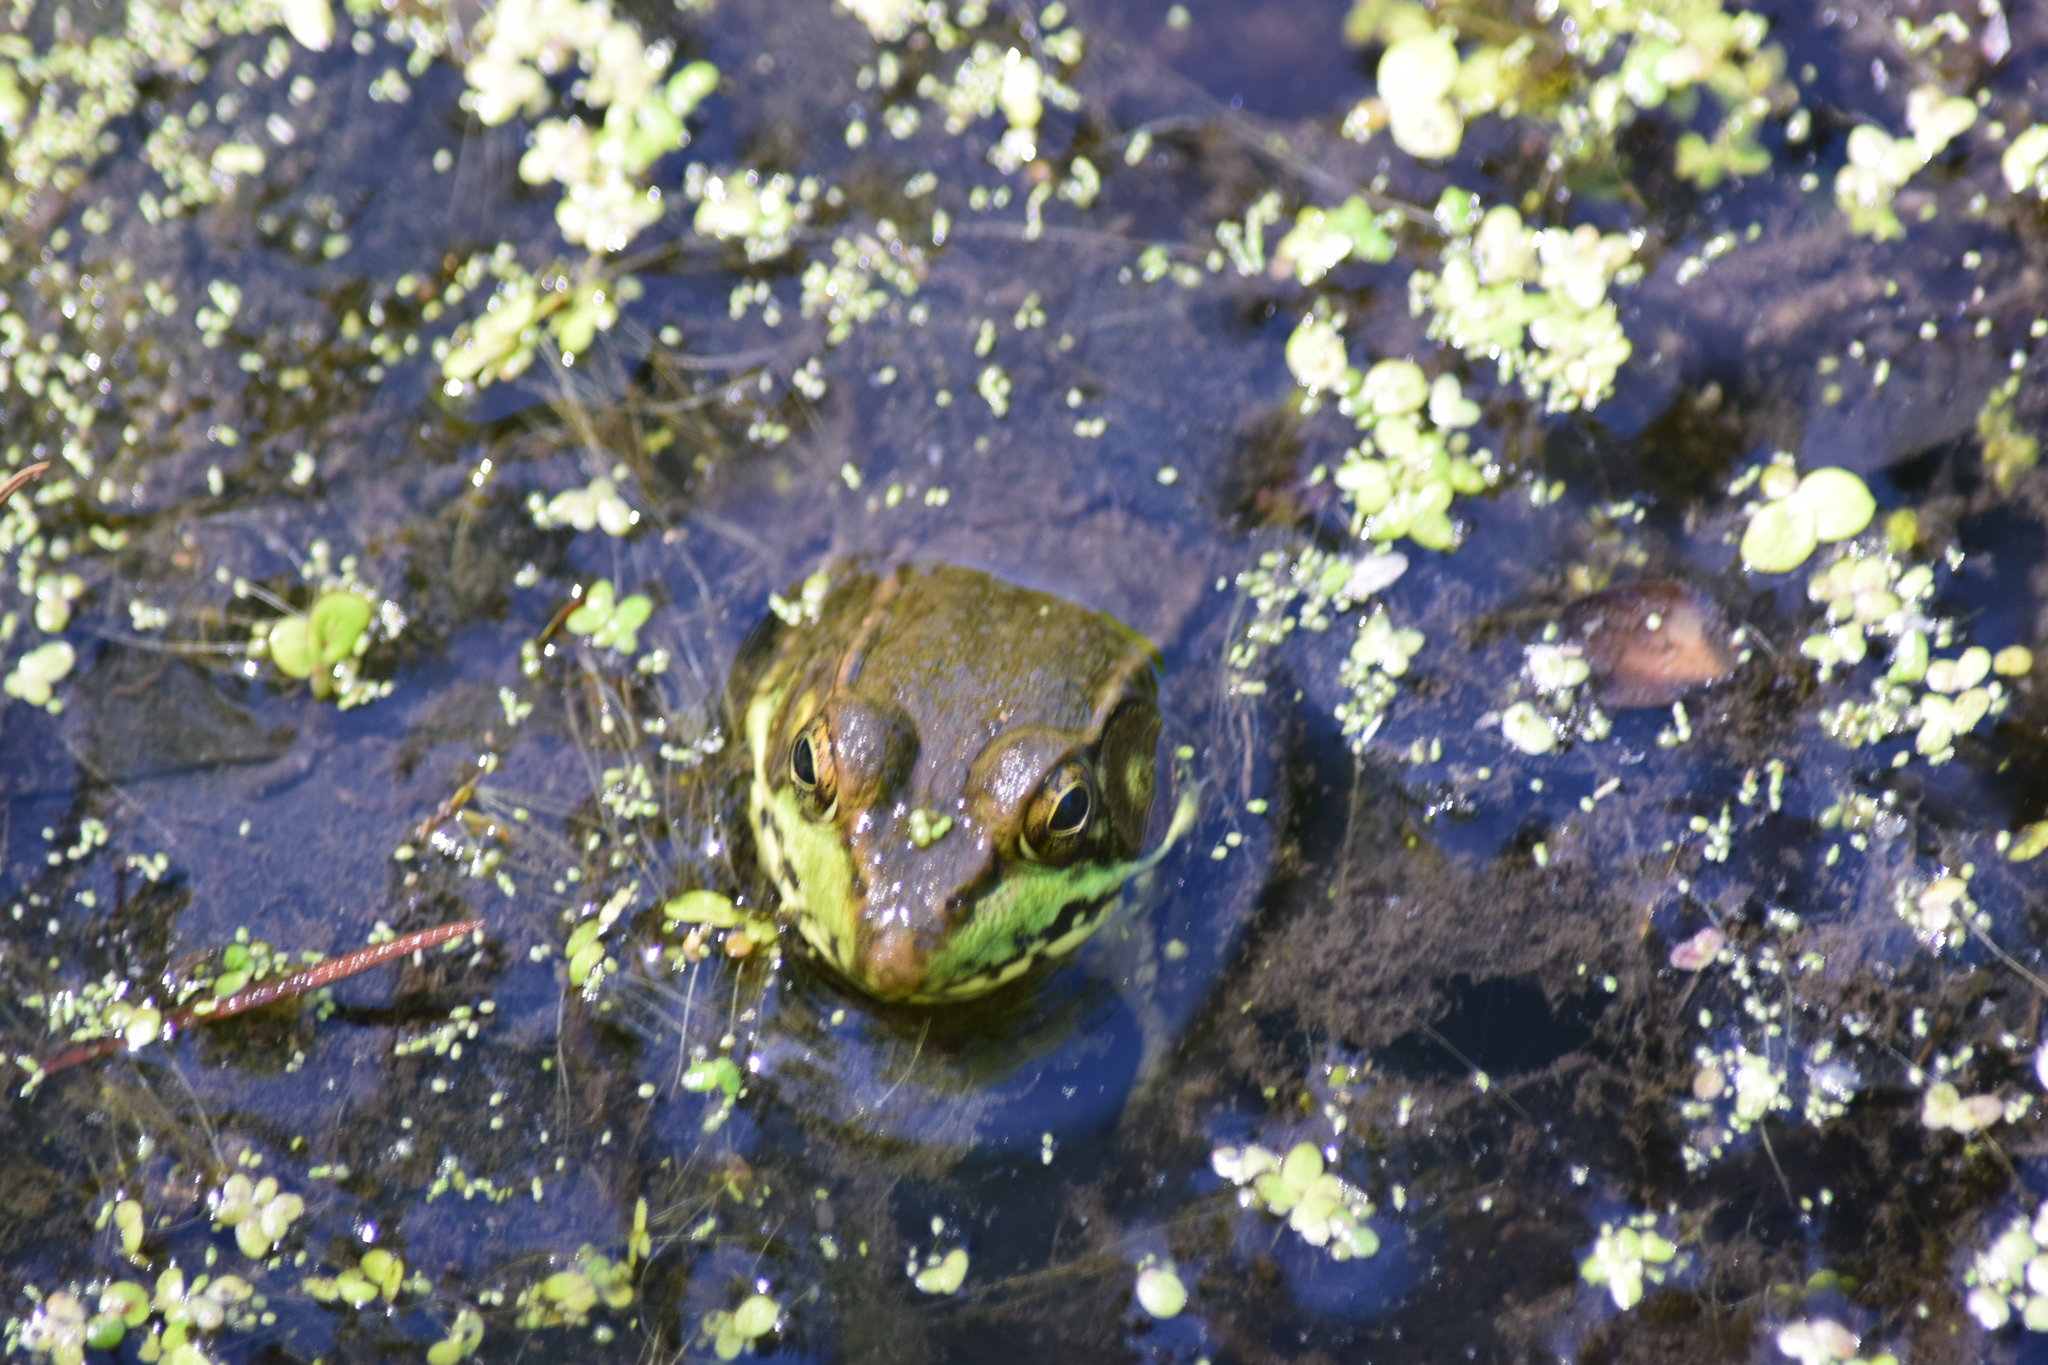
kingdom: Animalia
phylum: Chordata
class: Amphibia
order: Anura
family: Ranidae
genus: Lithobates
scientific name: Lithobates clamitans
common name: Green frog
